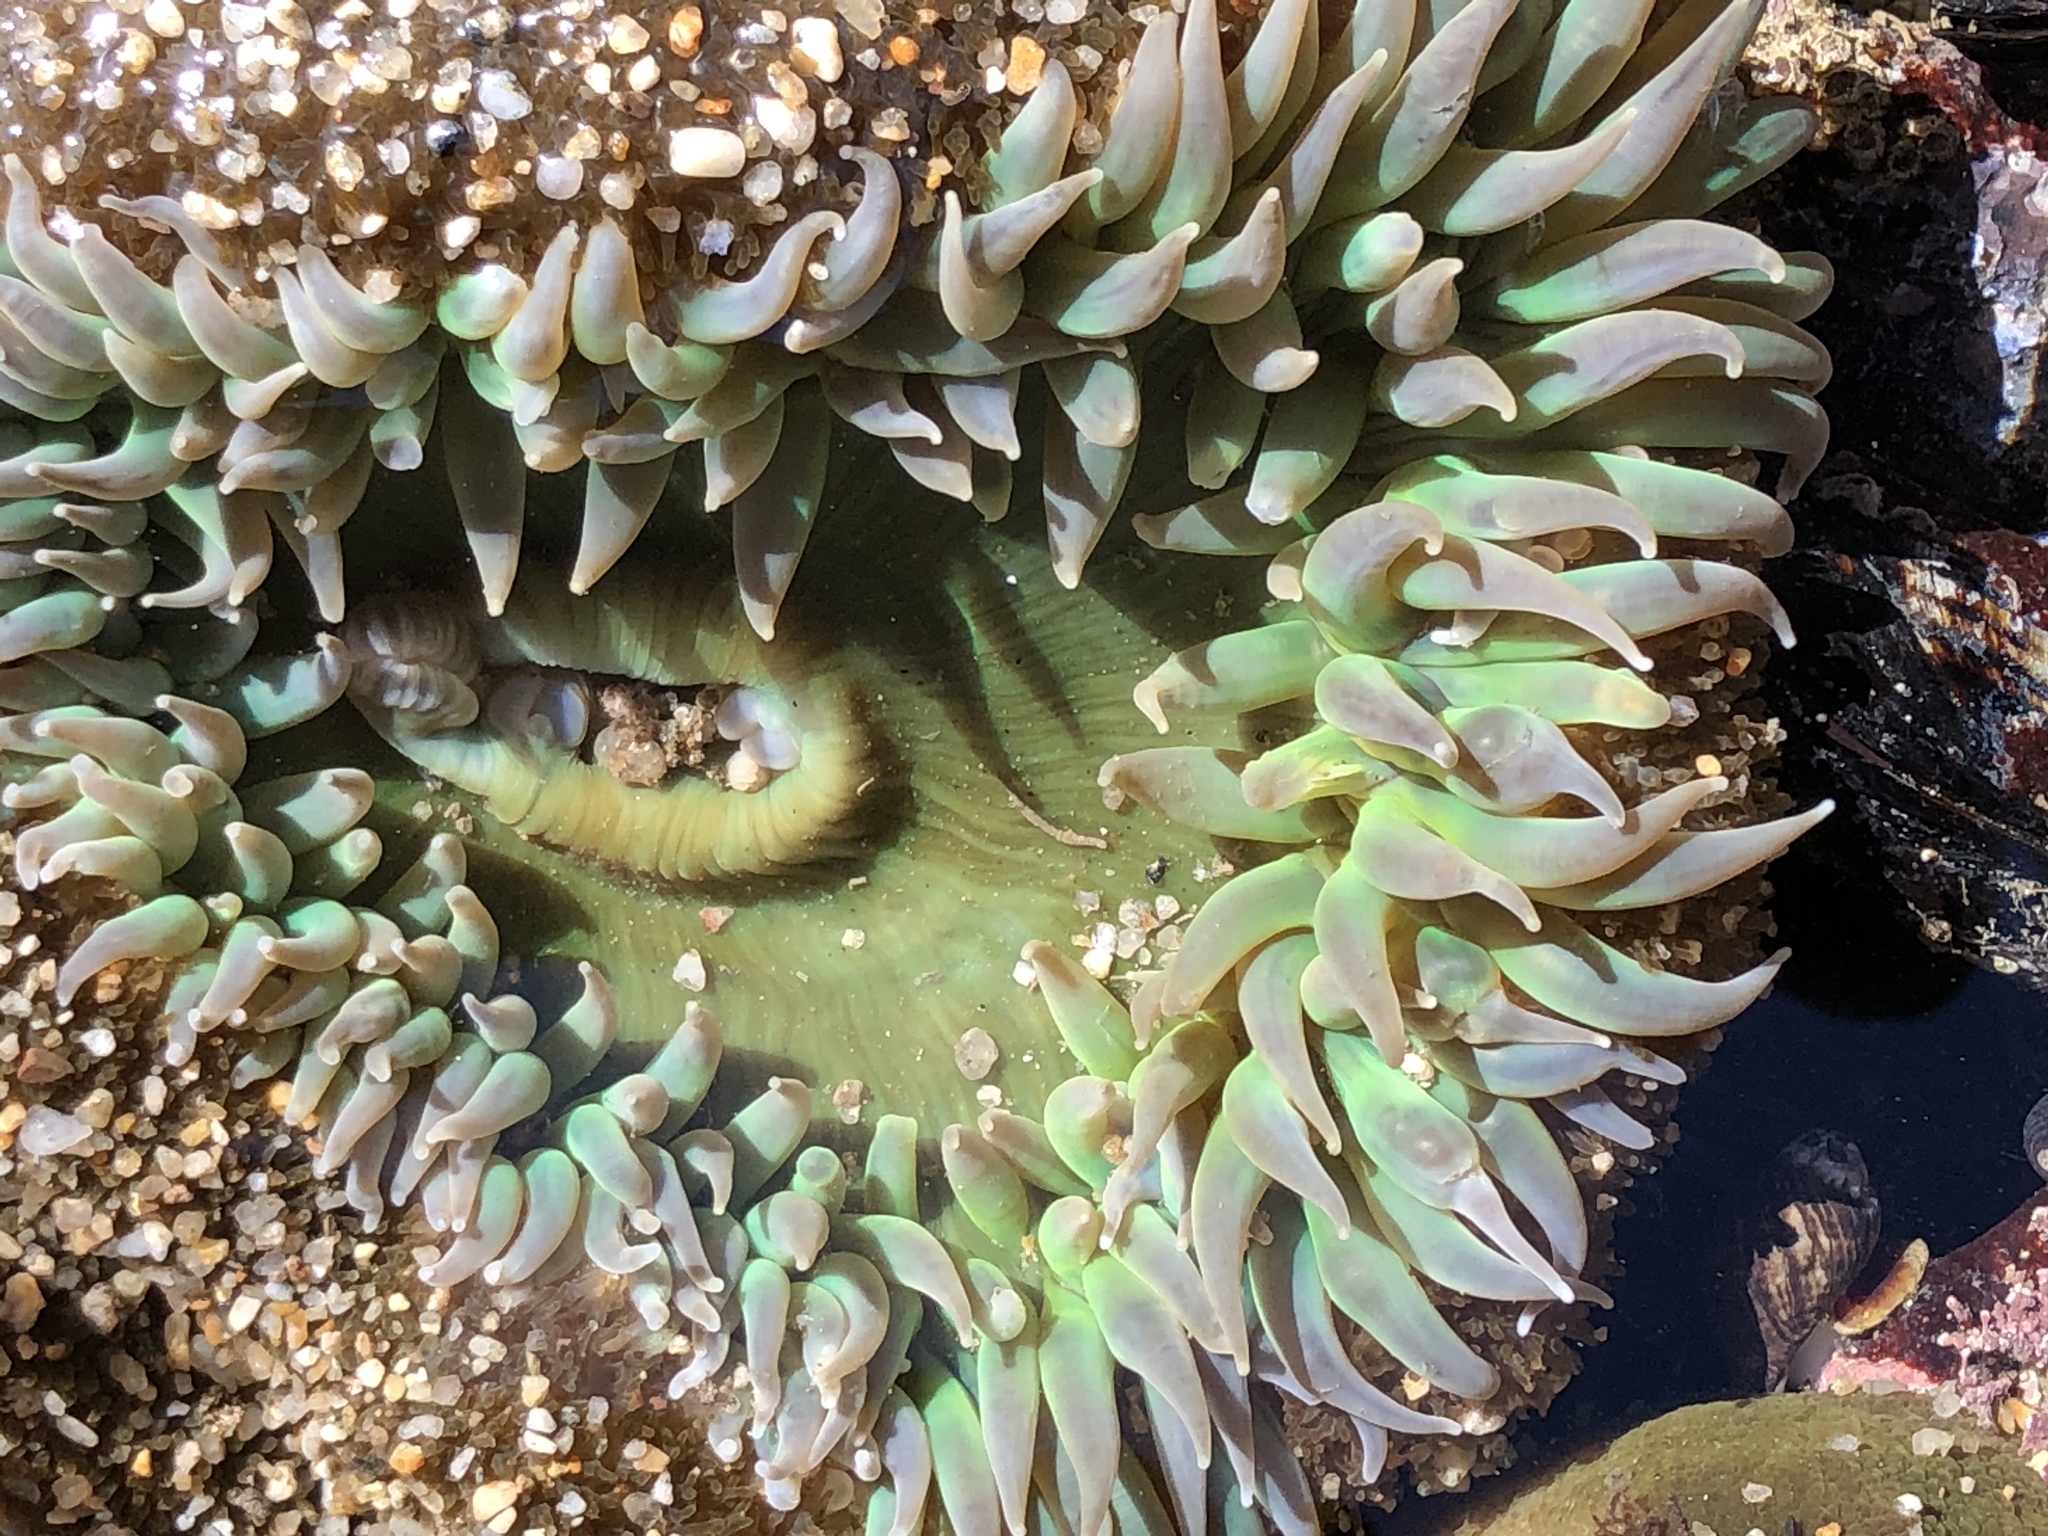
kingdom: Animalia
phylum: Cnidaria
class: Anthozoa
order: Actiniaria
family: Actiniidae
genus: Anthopleura
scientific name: Anthopleura xanthogrammica
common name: Giant green anemone
